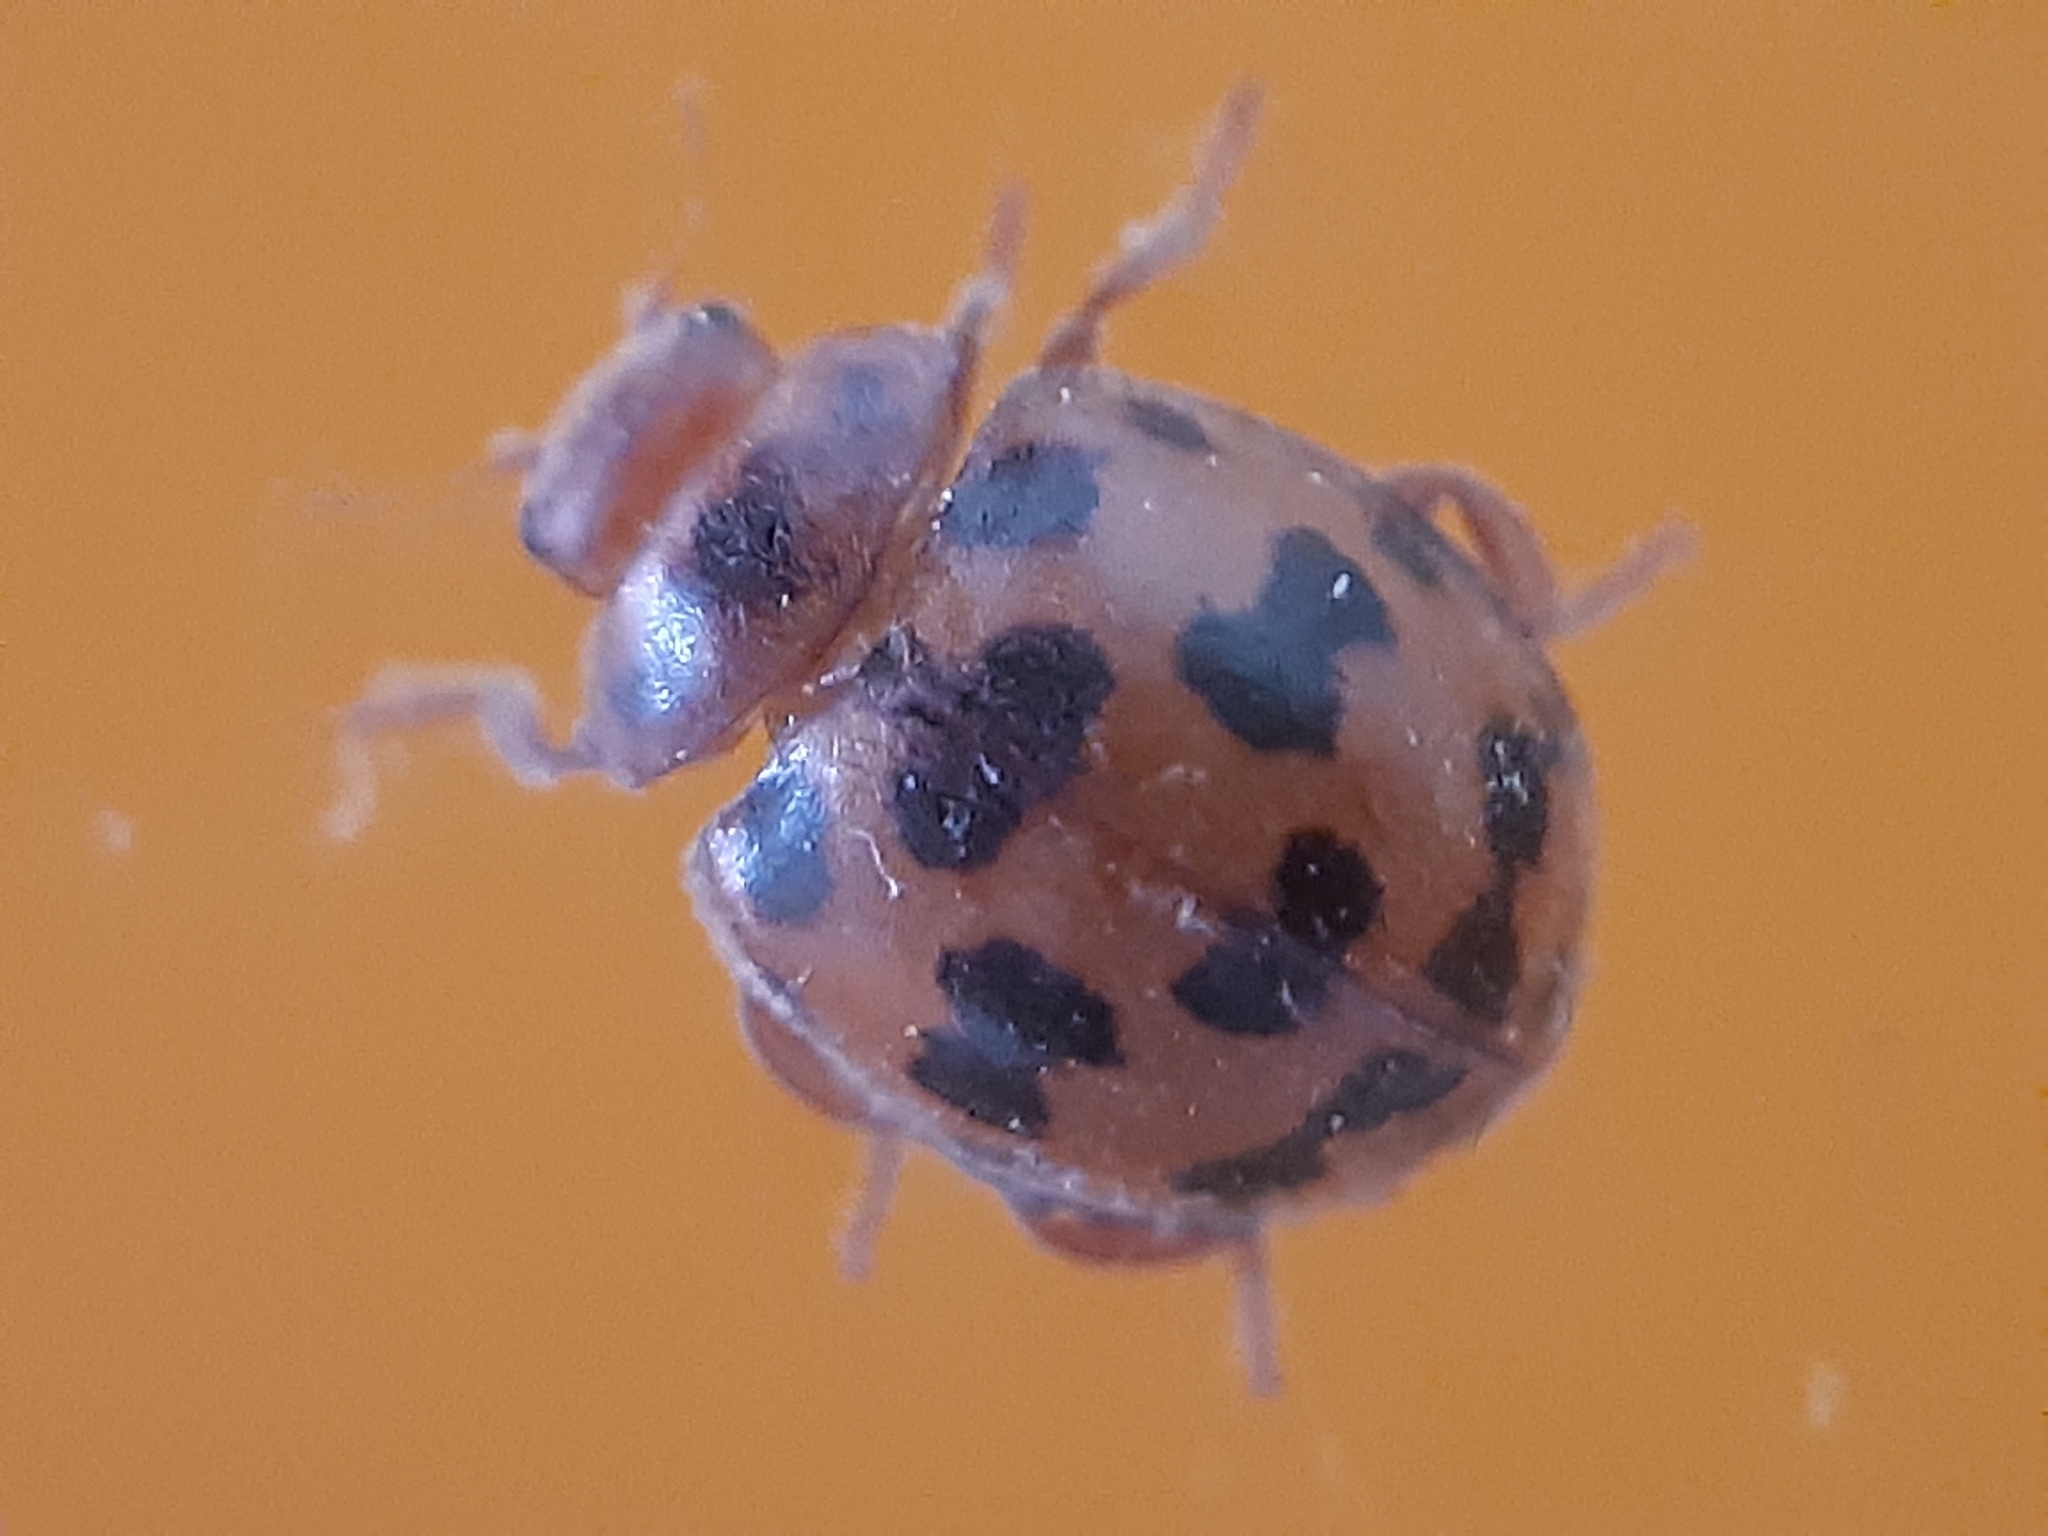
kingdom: Animalia
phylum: Arthropoda
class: Insecta
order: Coleoptera
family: Coccinellidae
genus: Subcoccinella
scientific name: Subcoccinella vigintiquatuorpunctata
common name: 24-spot ladybird
